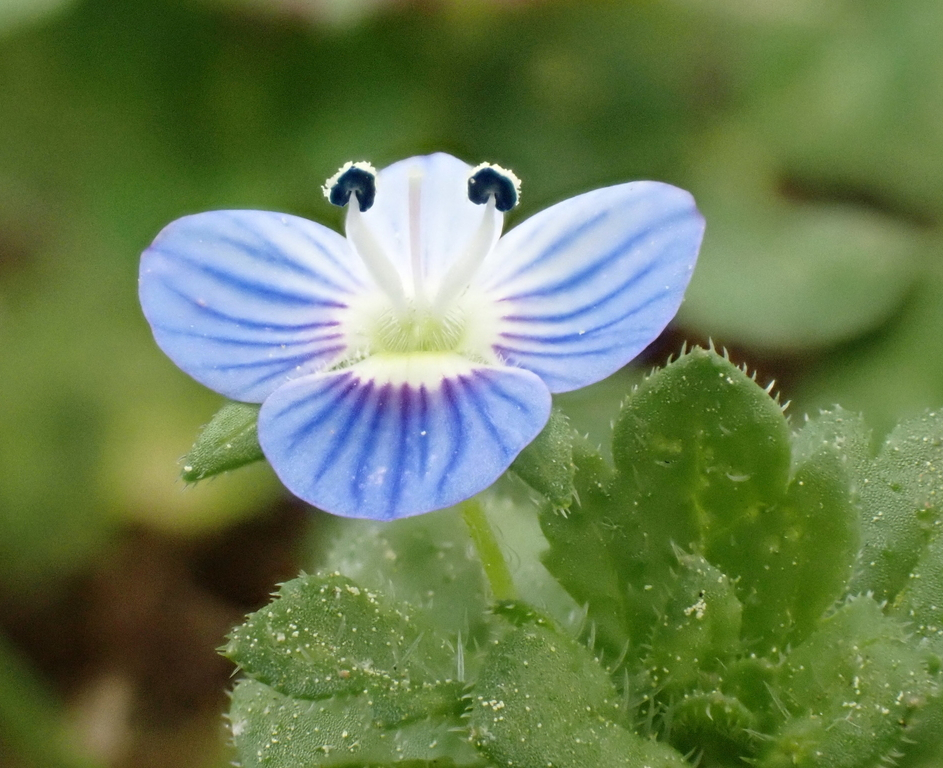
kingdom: Plantae
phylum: Tracheophyta
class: Magnoliopsida
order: Lamiales
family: Plantaginaceae
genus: Veronica
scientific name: Veronica persica
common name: Common field-speedwell
